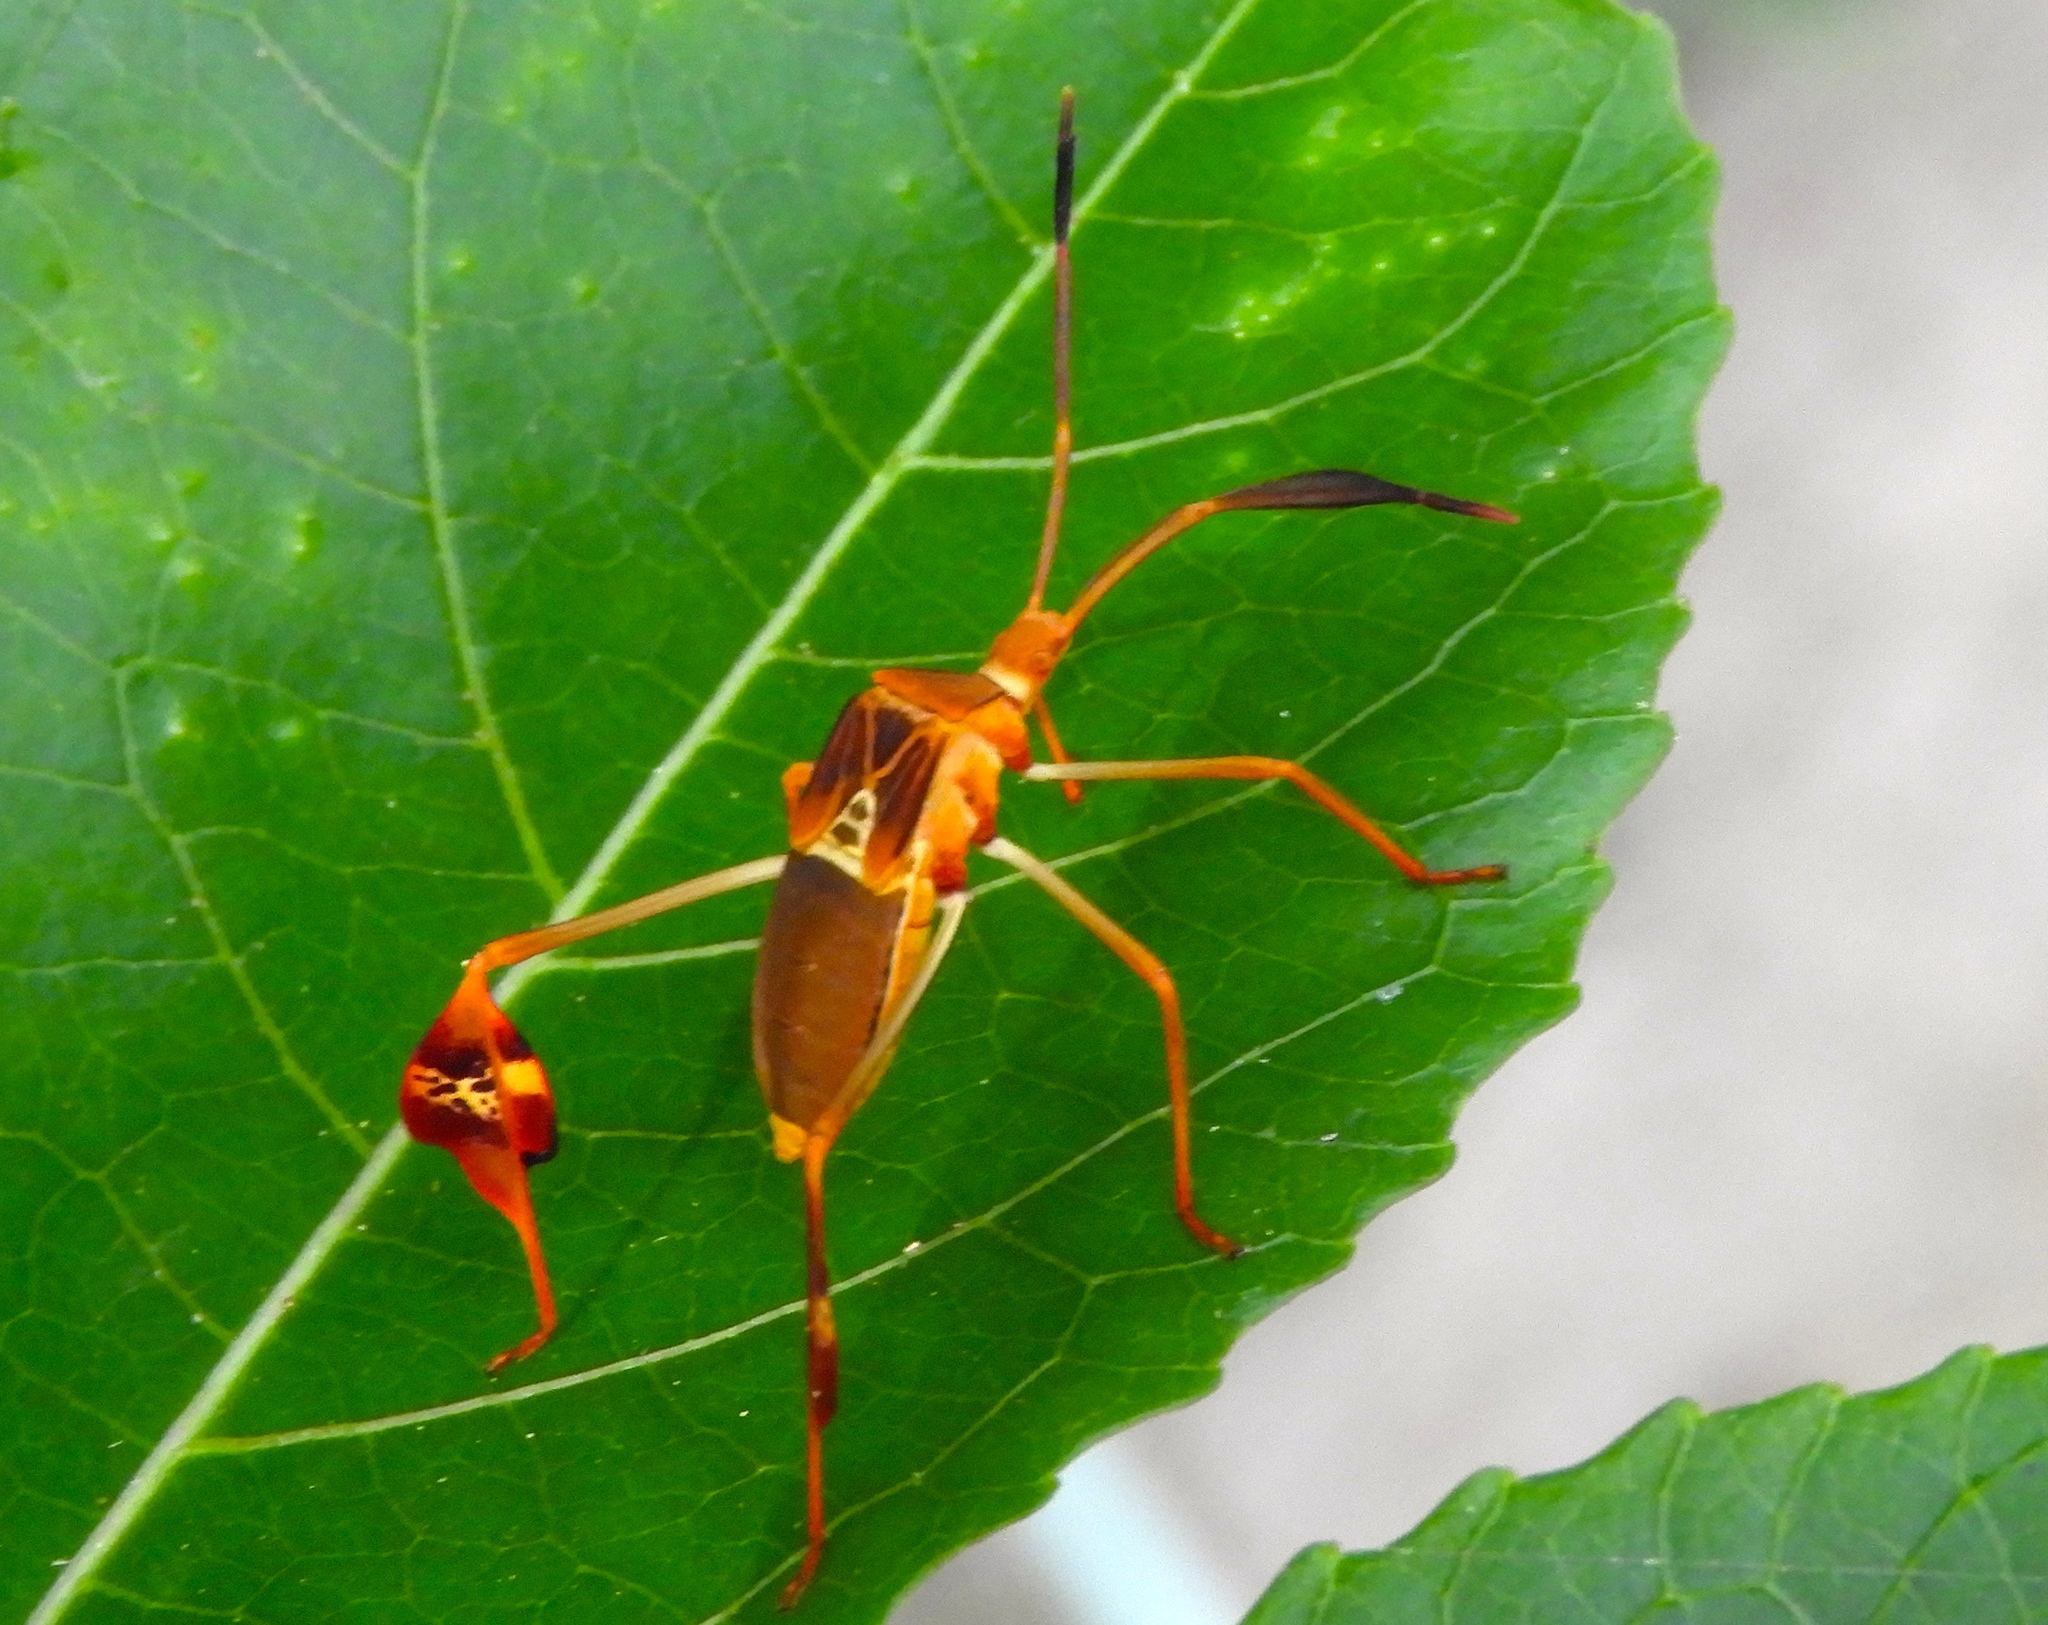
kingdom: Animalia
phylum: Arthropoda
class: Insecta
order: Hemiptera
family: Coreidae
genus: Bitta
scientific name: Bitta
